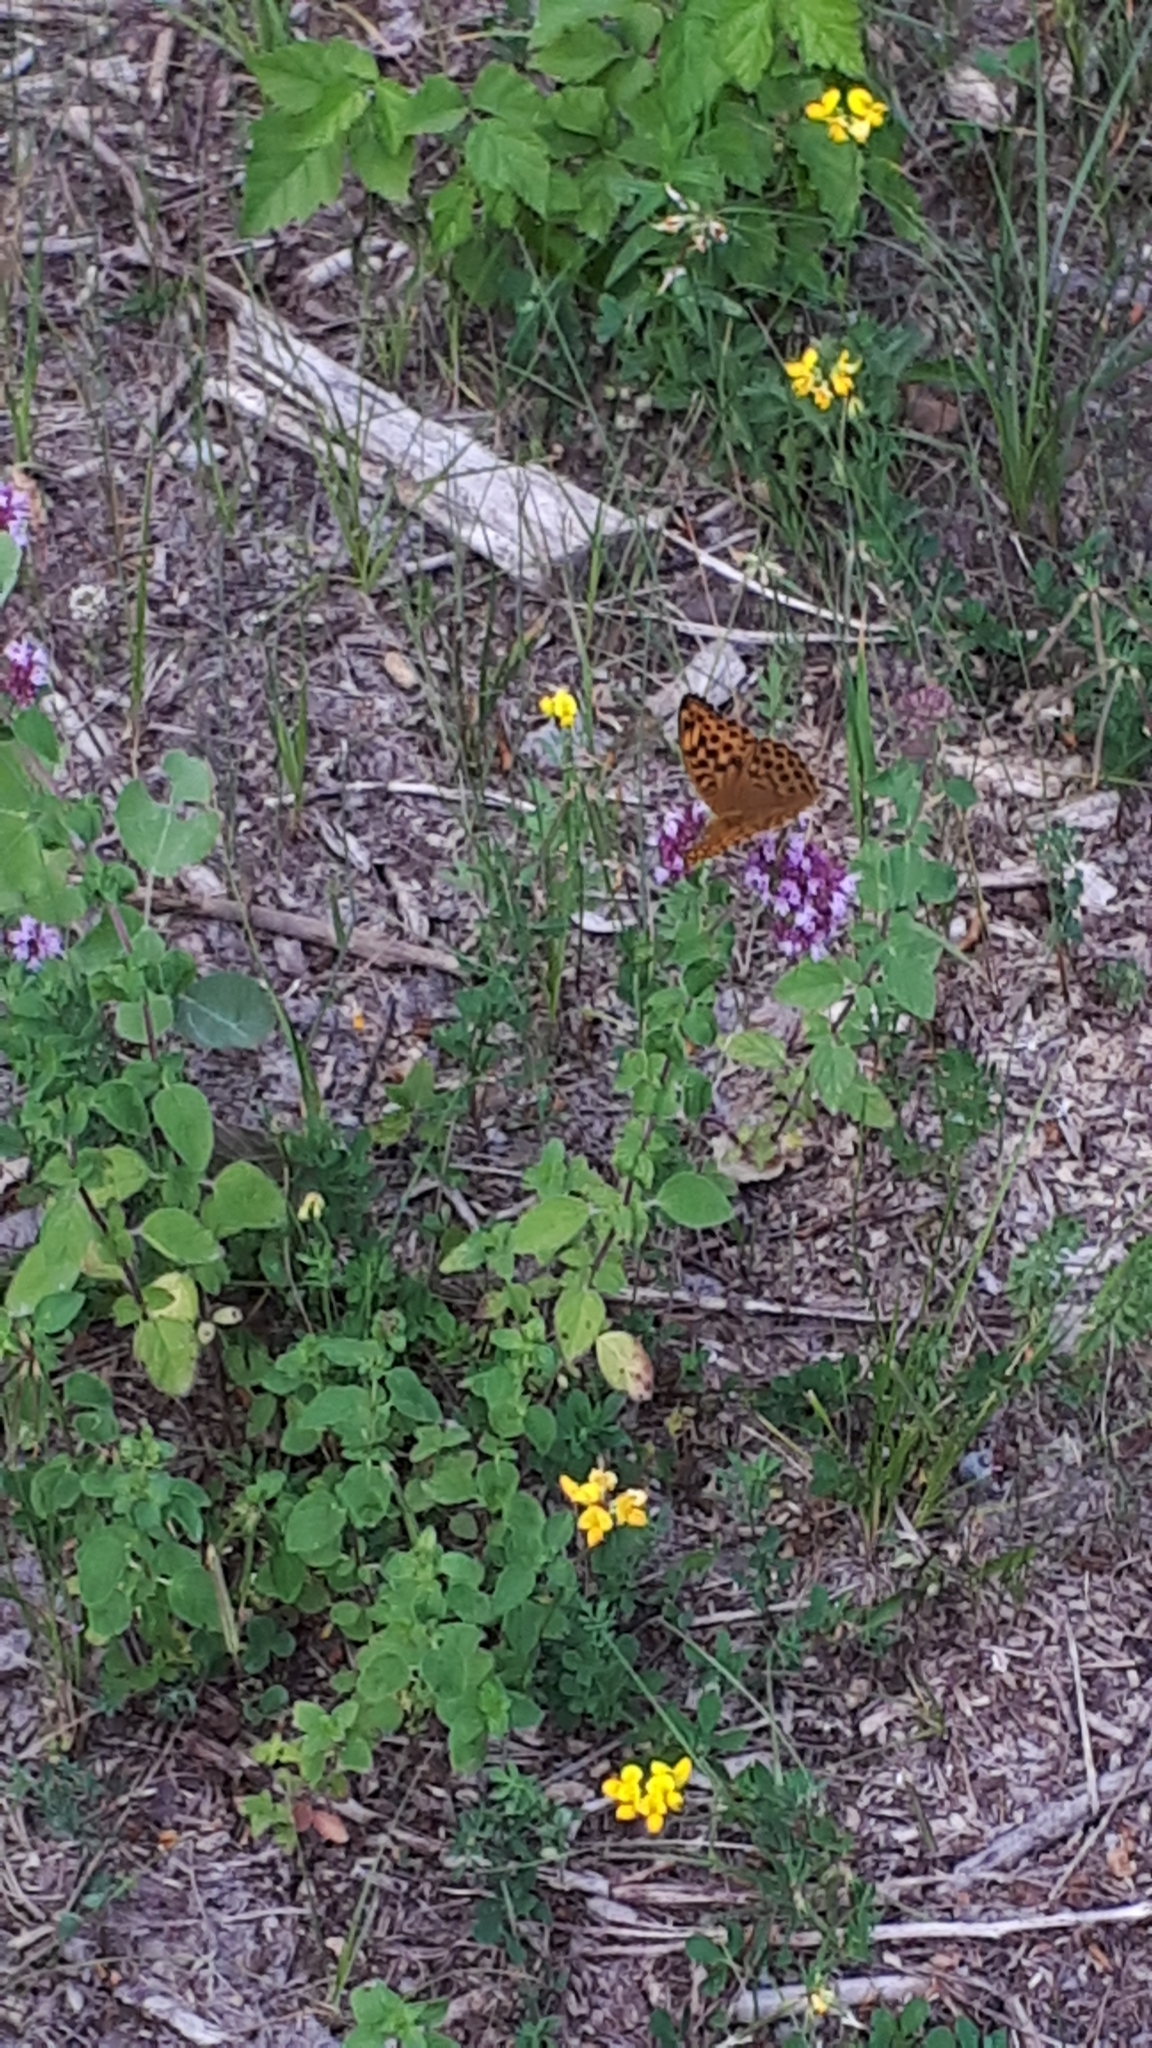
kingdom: Animalia
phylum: Arthropoda
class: Insecta
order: Lepidoptera
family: Nymphalidae
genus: Argynnis
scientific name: Argynnis paphia
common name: Silver-washed fritillary
